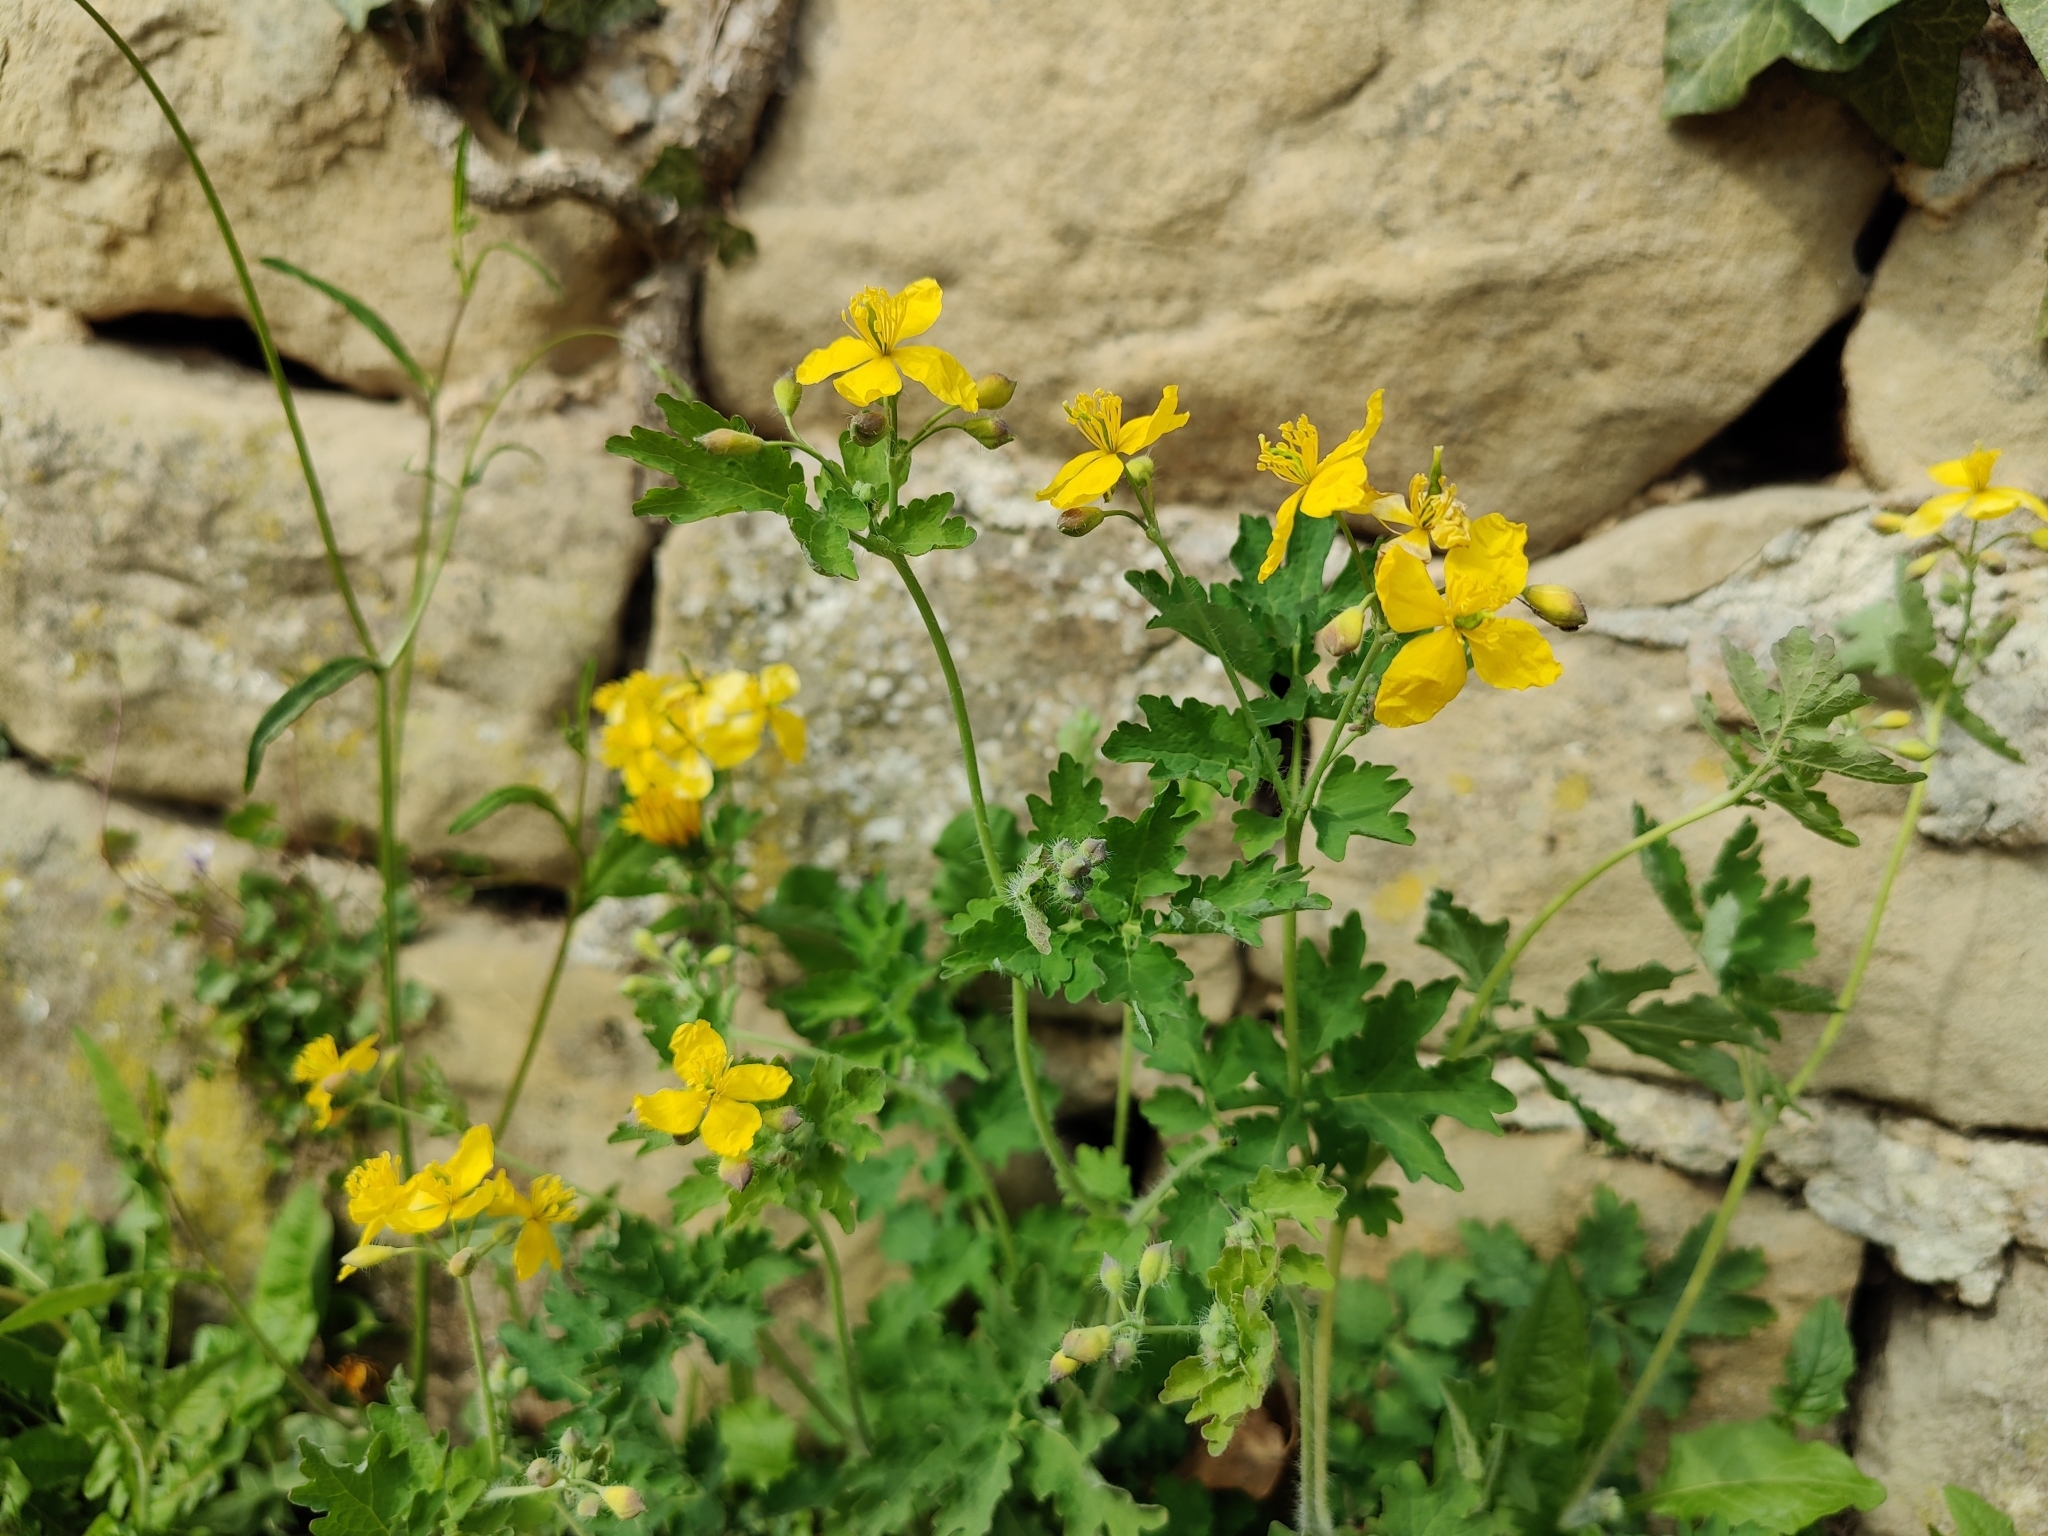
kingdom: Plantae
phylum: Tracheophyta
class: Magnoliopsida
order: Ranunculales
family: Papaveraceae
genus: Chelidonium
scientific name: Chelidonium majus
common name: Greater celandine
